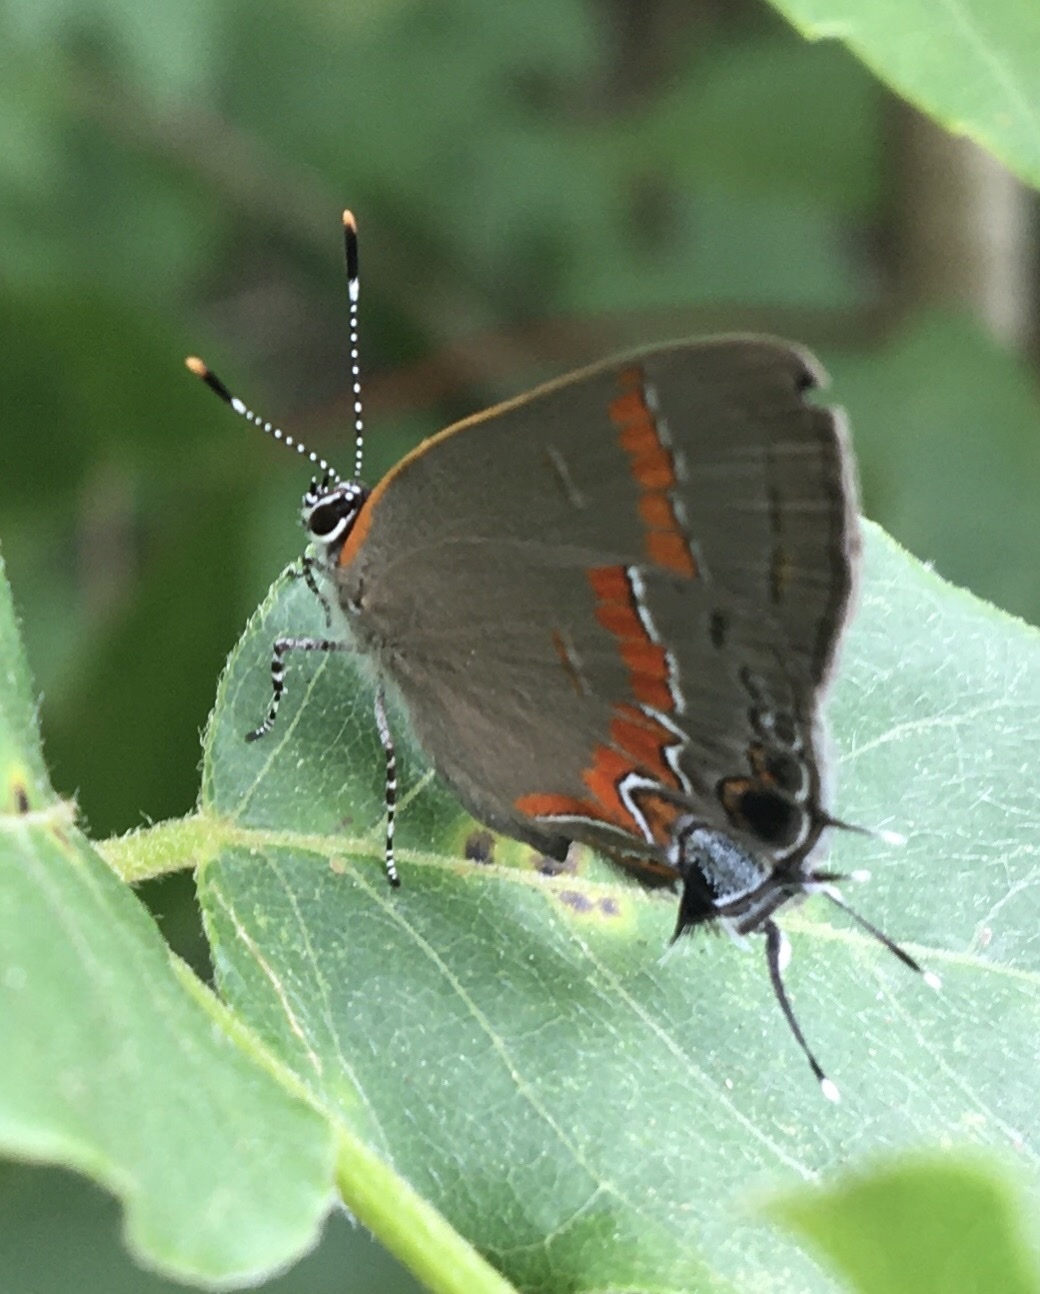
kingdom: Animalia
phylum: Arthropoda
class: Insecta
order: Lepidoptera
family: Lycaenidae
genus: Calycopis
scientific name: Calycopis cecrops
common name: Red-banded hairstreak
